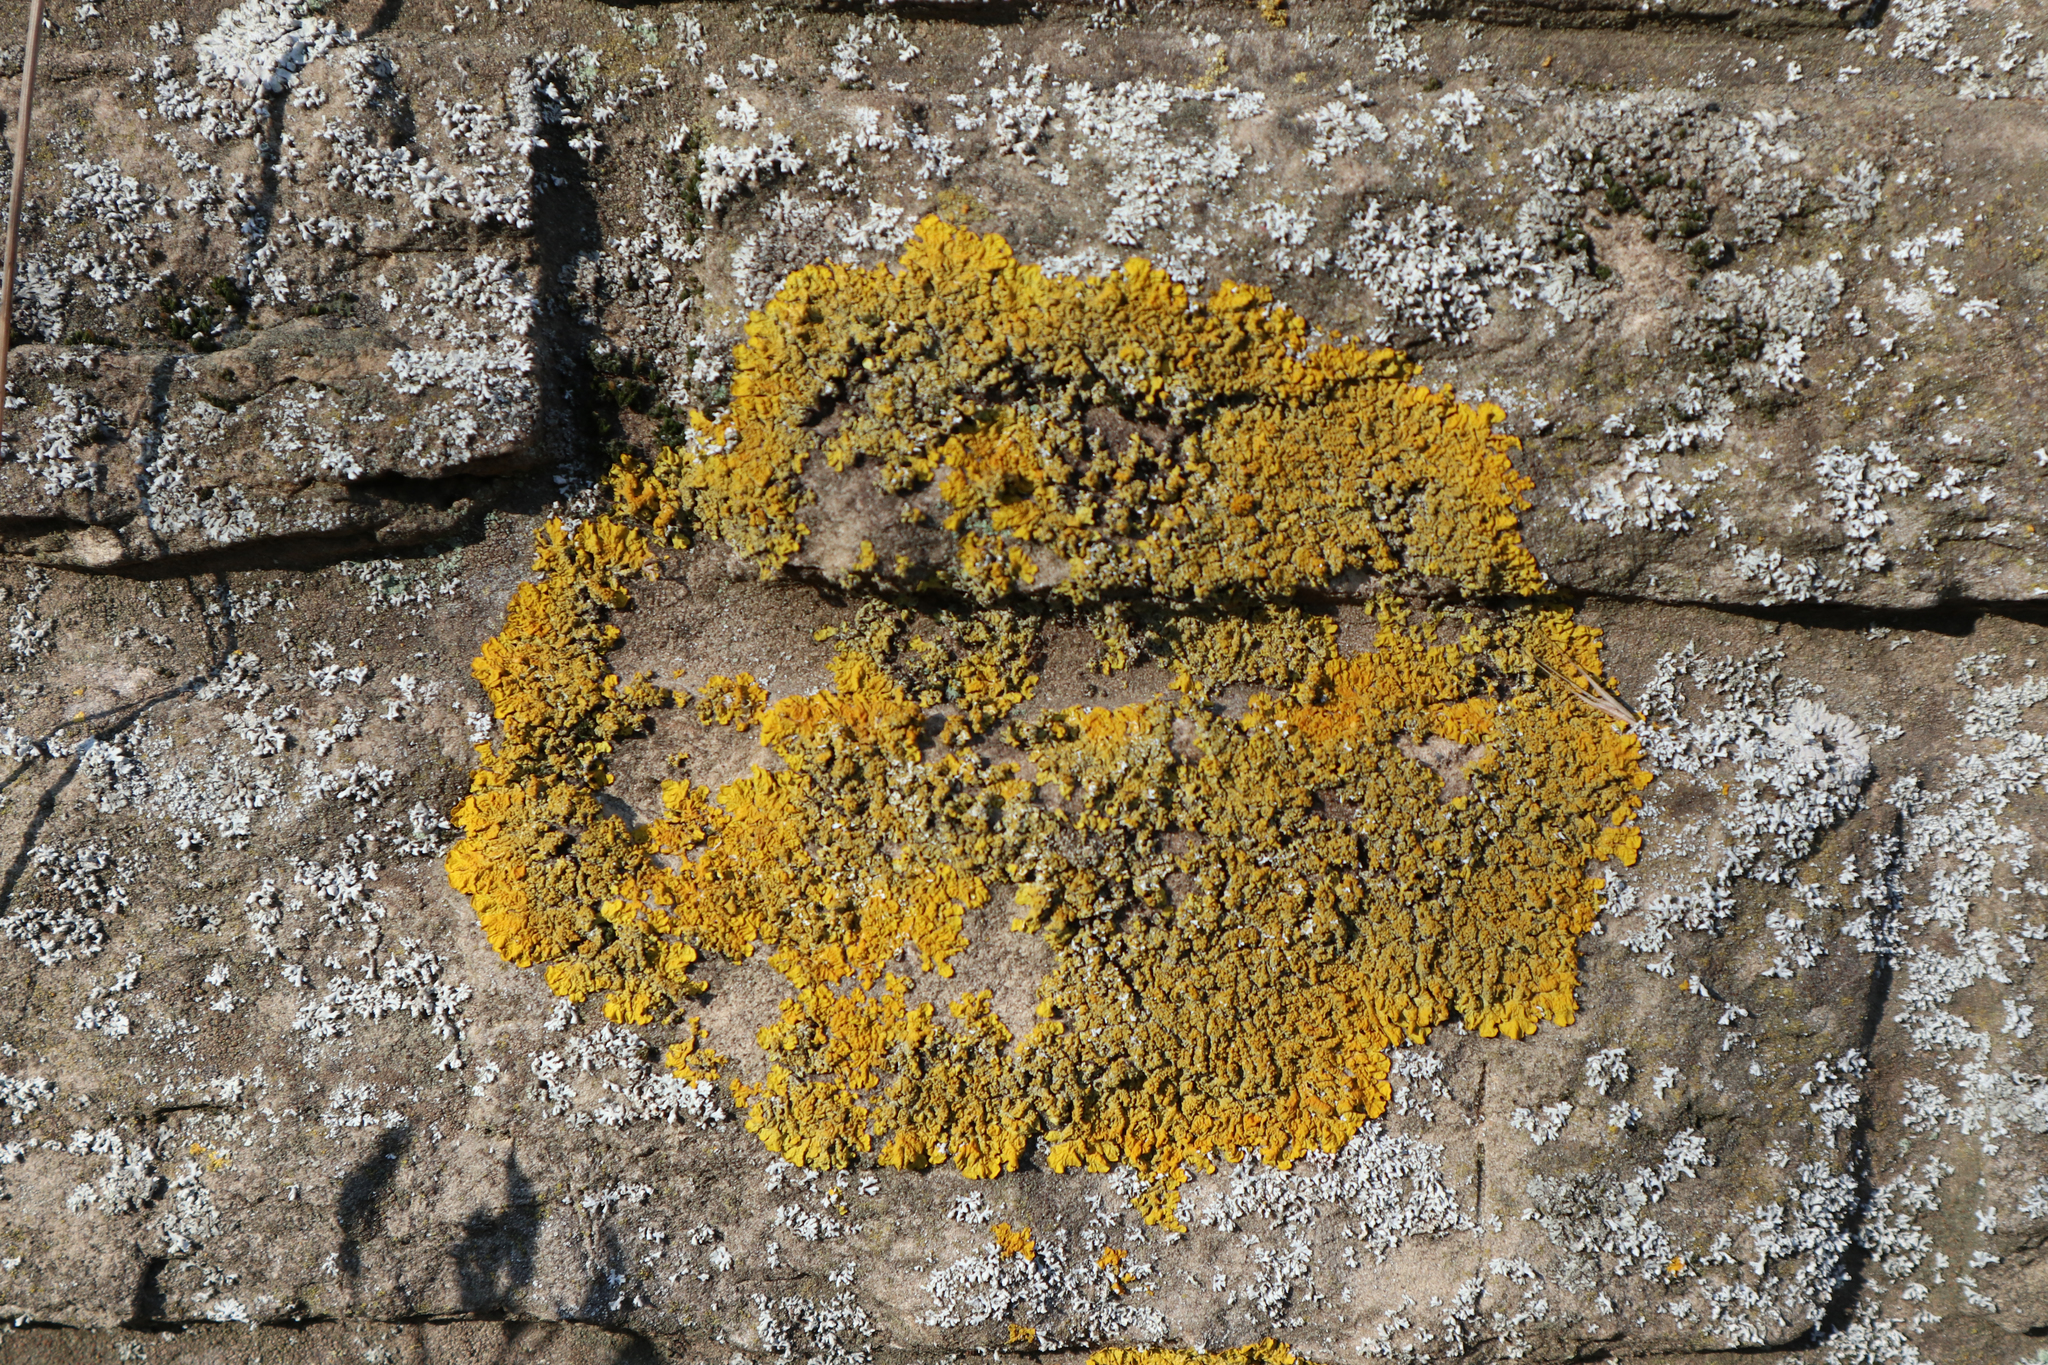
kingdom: Fungi
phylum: Ascomycota
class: Lecanoromycetes
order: Teloschistales
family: Teloschistaceae
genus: Xanthoria
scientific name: Xanthoria parietina
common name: Common orange lichen
